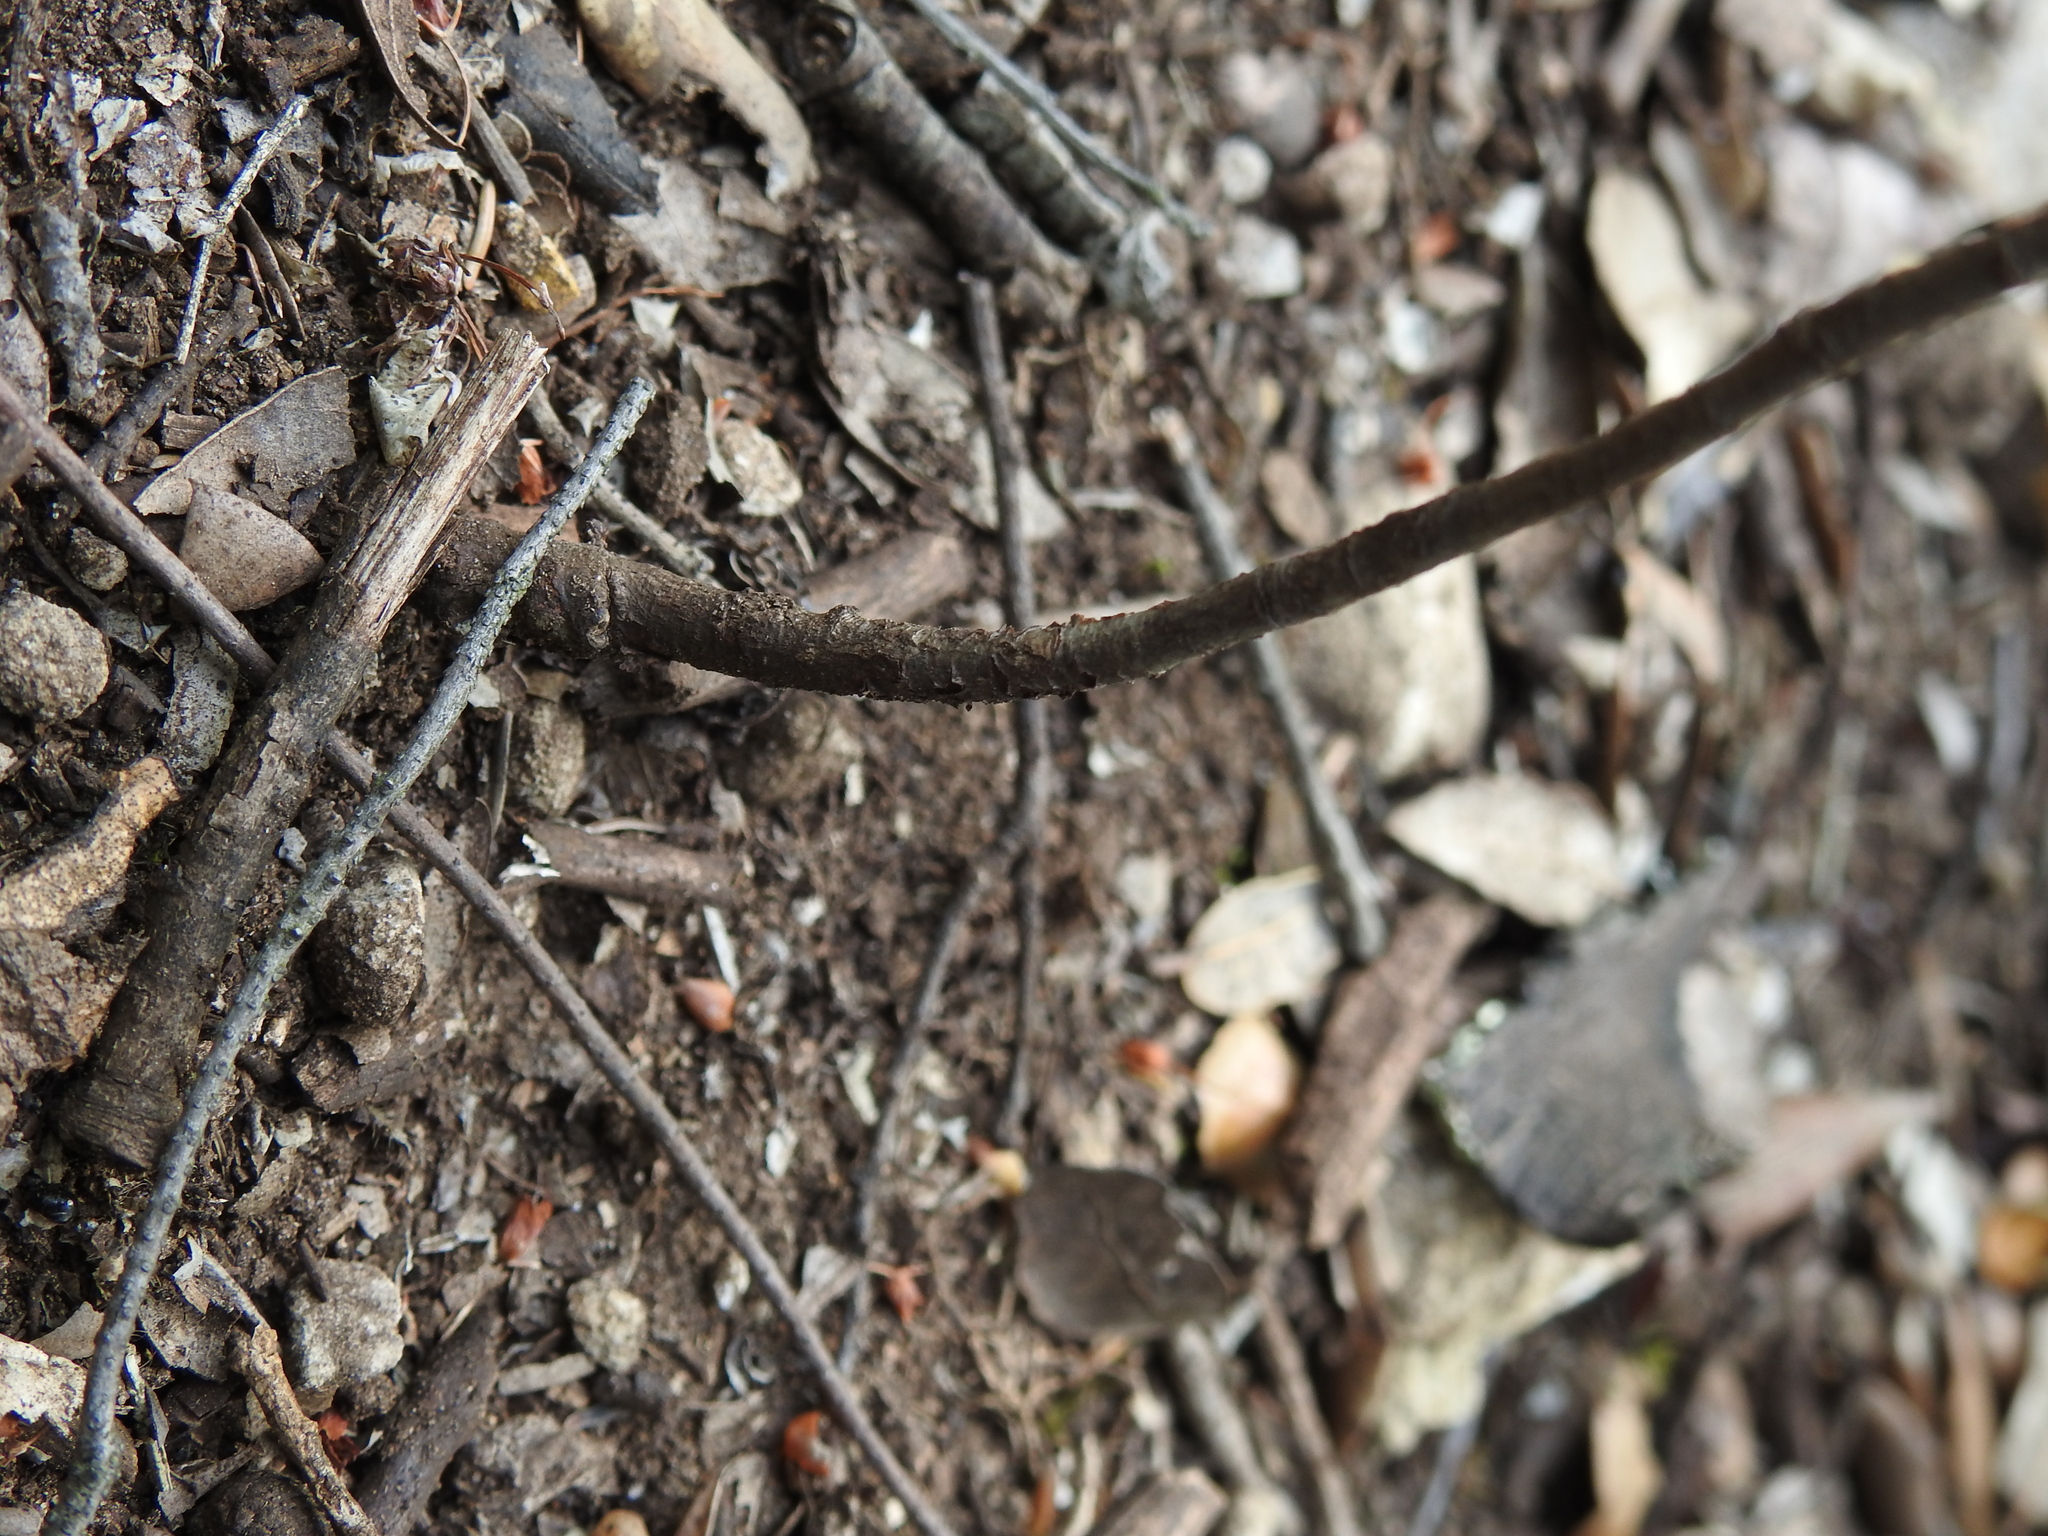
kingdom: Plantae
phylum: Tracheophyta
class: Magnoliopsida
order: Rosales
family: Rosaceae
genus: Aria
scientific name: Aria edulis
